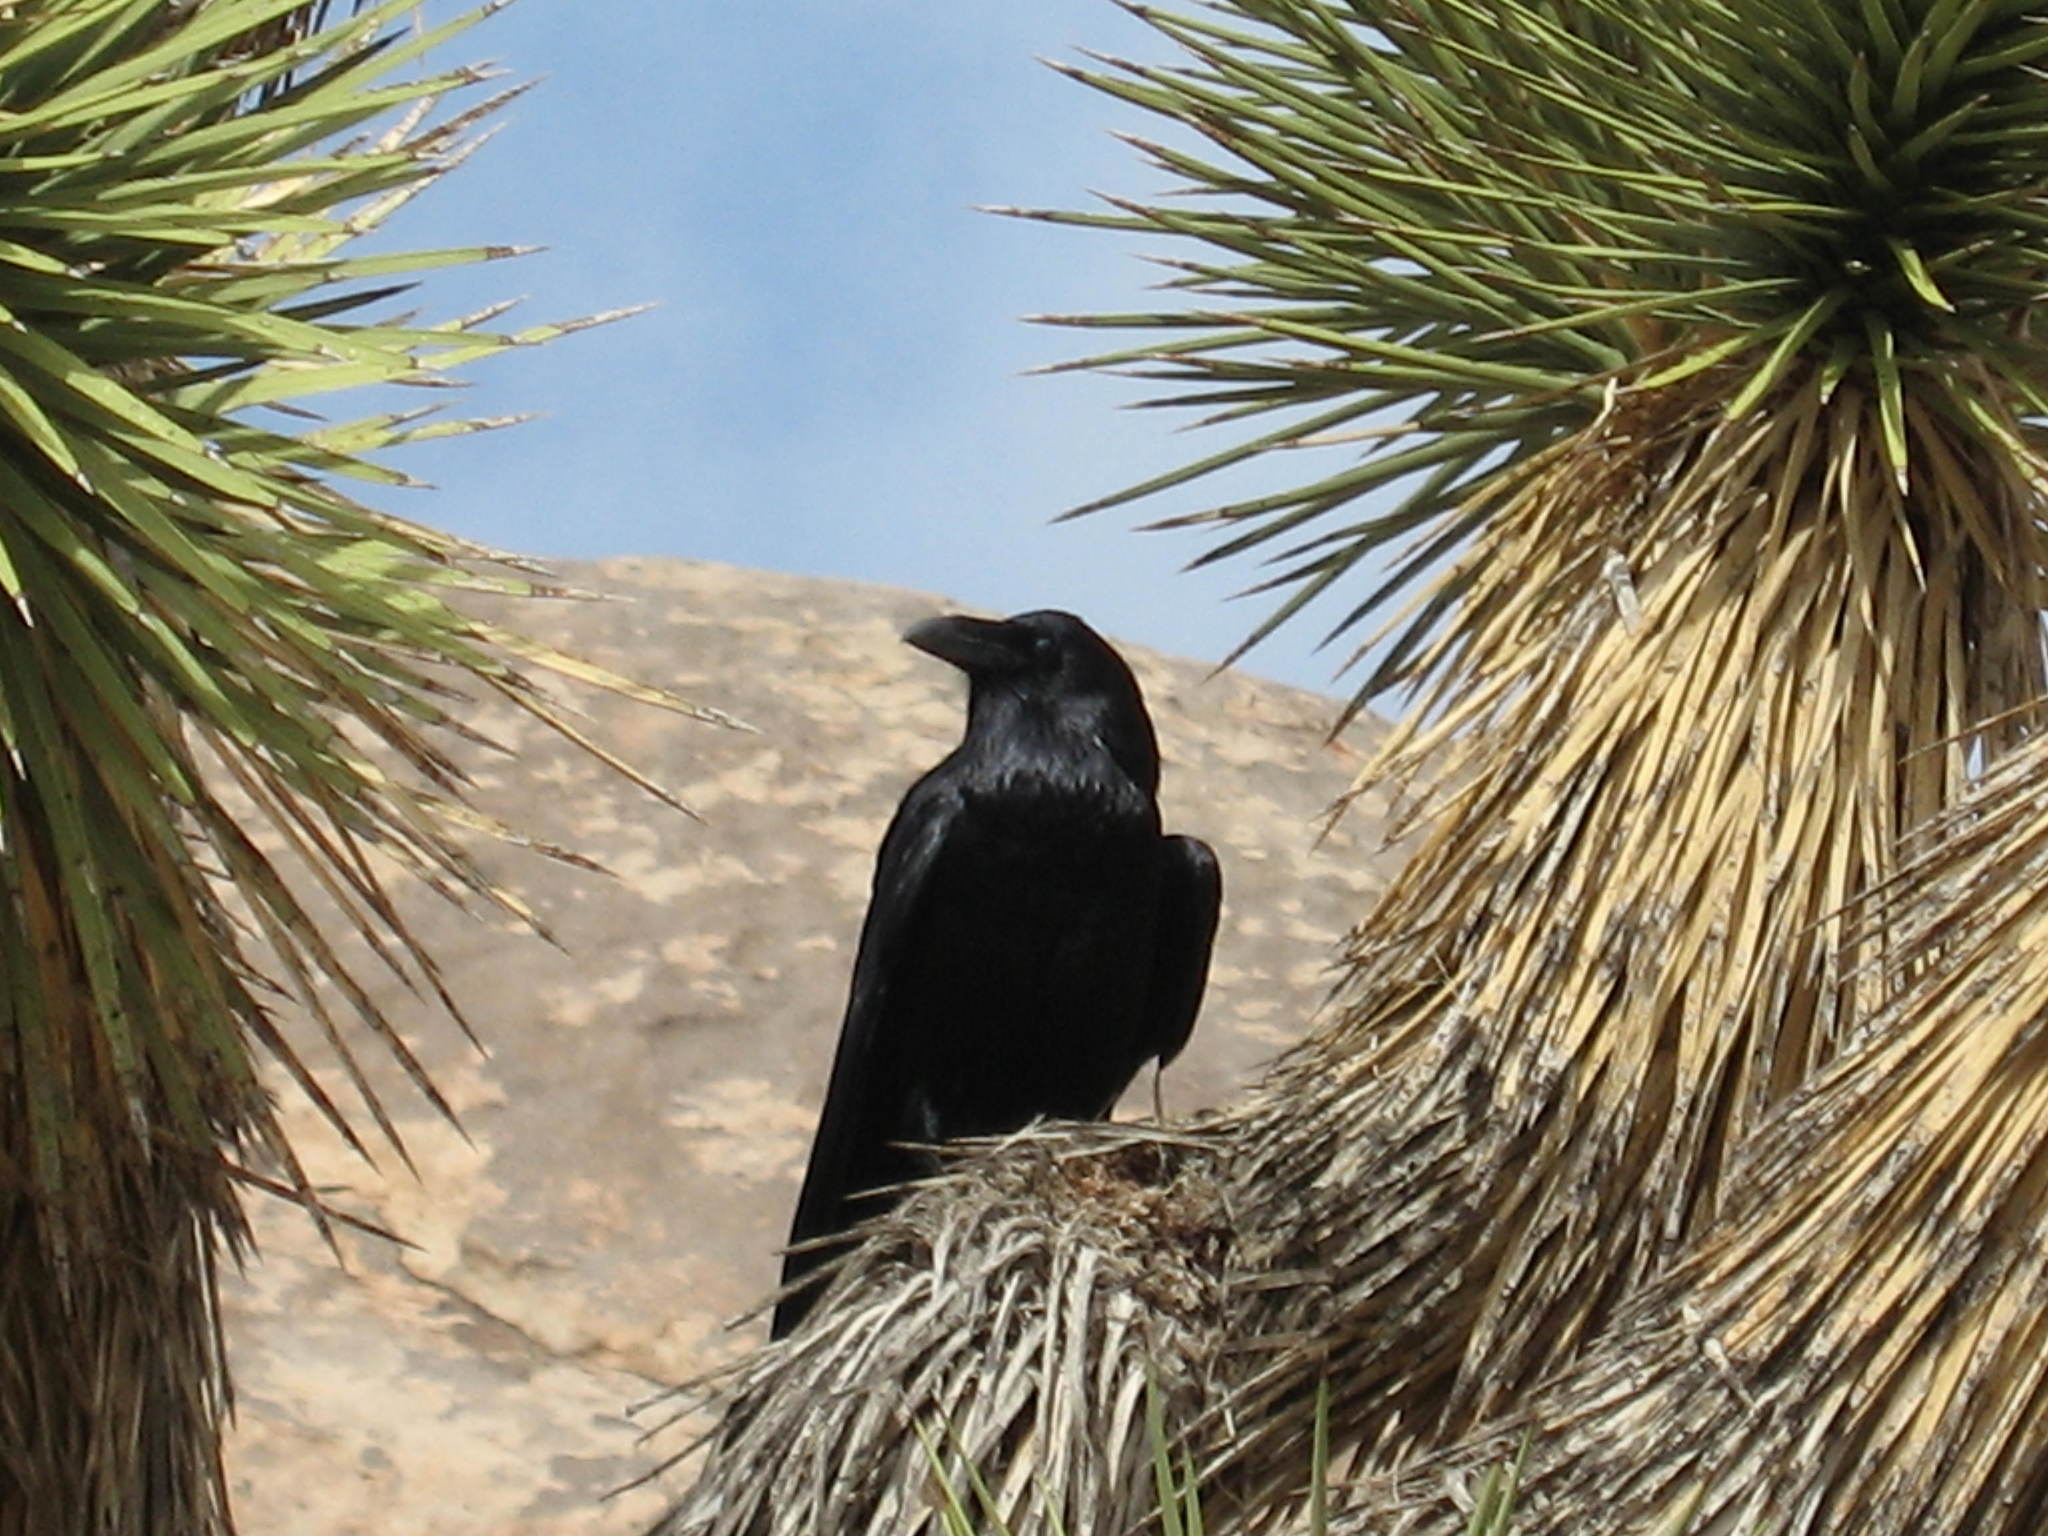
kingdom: Animalia
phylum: Chordata
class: Aves
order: Passeriformes
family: Corvidae
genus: Corvus
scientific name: Corvus corax
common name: Common raven
